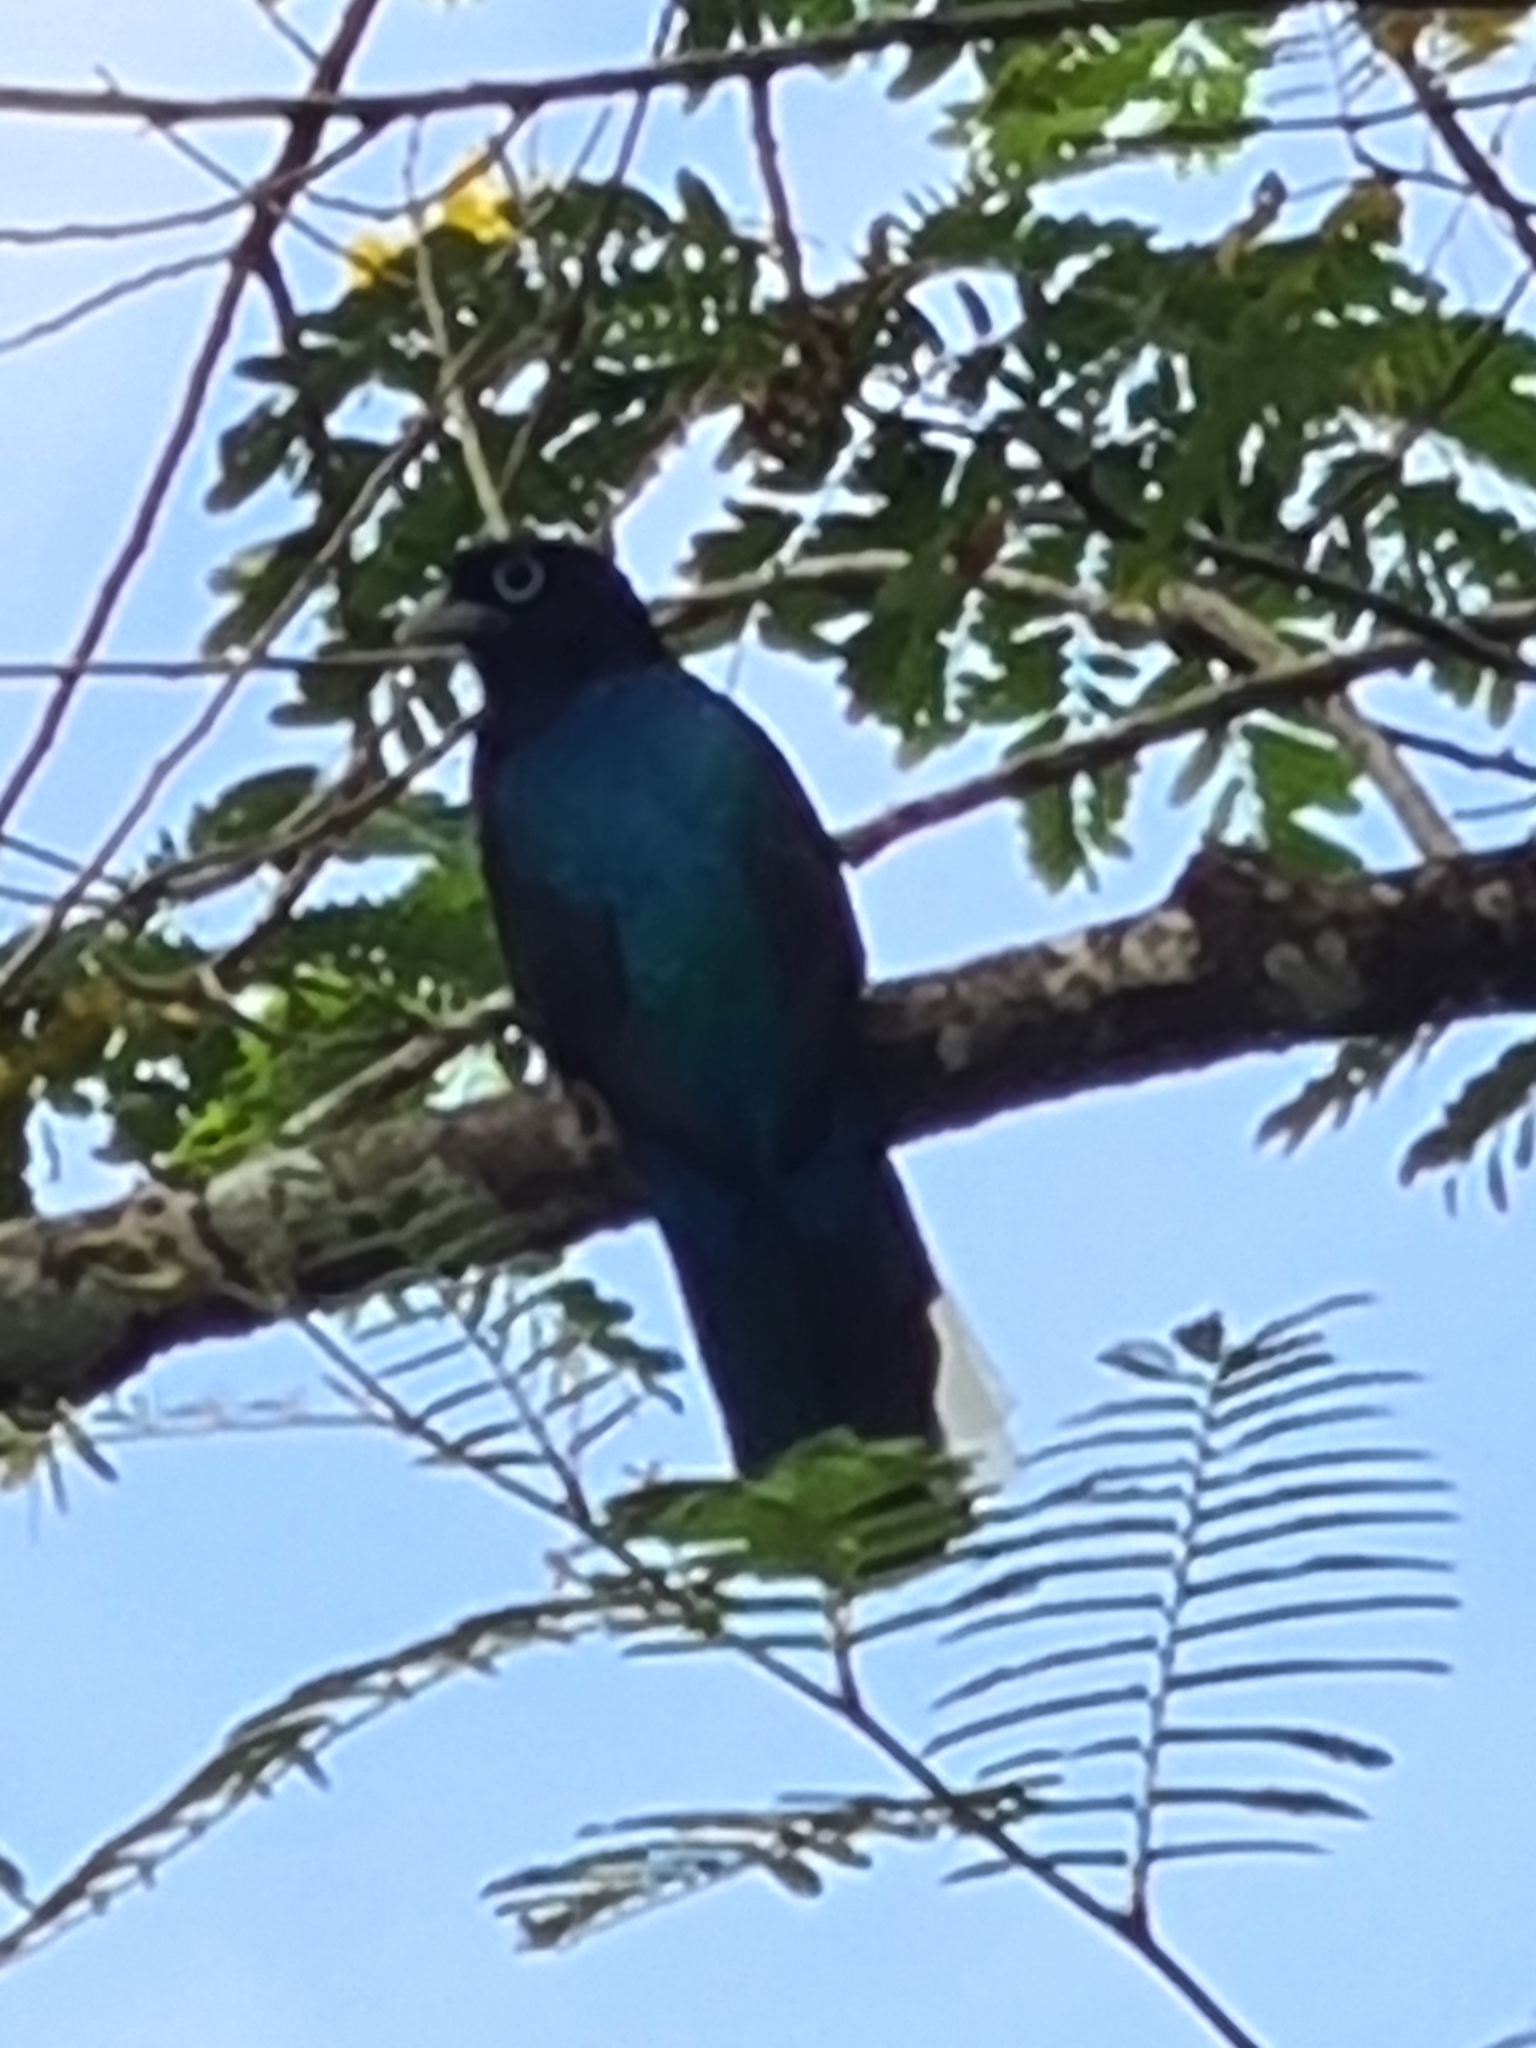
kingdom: Animalia
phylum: Chordata
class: Aves
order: Trogoniformes
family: Trogonidae
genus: Trogon
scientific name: Trogon viridis
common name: Green-backed trogon
